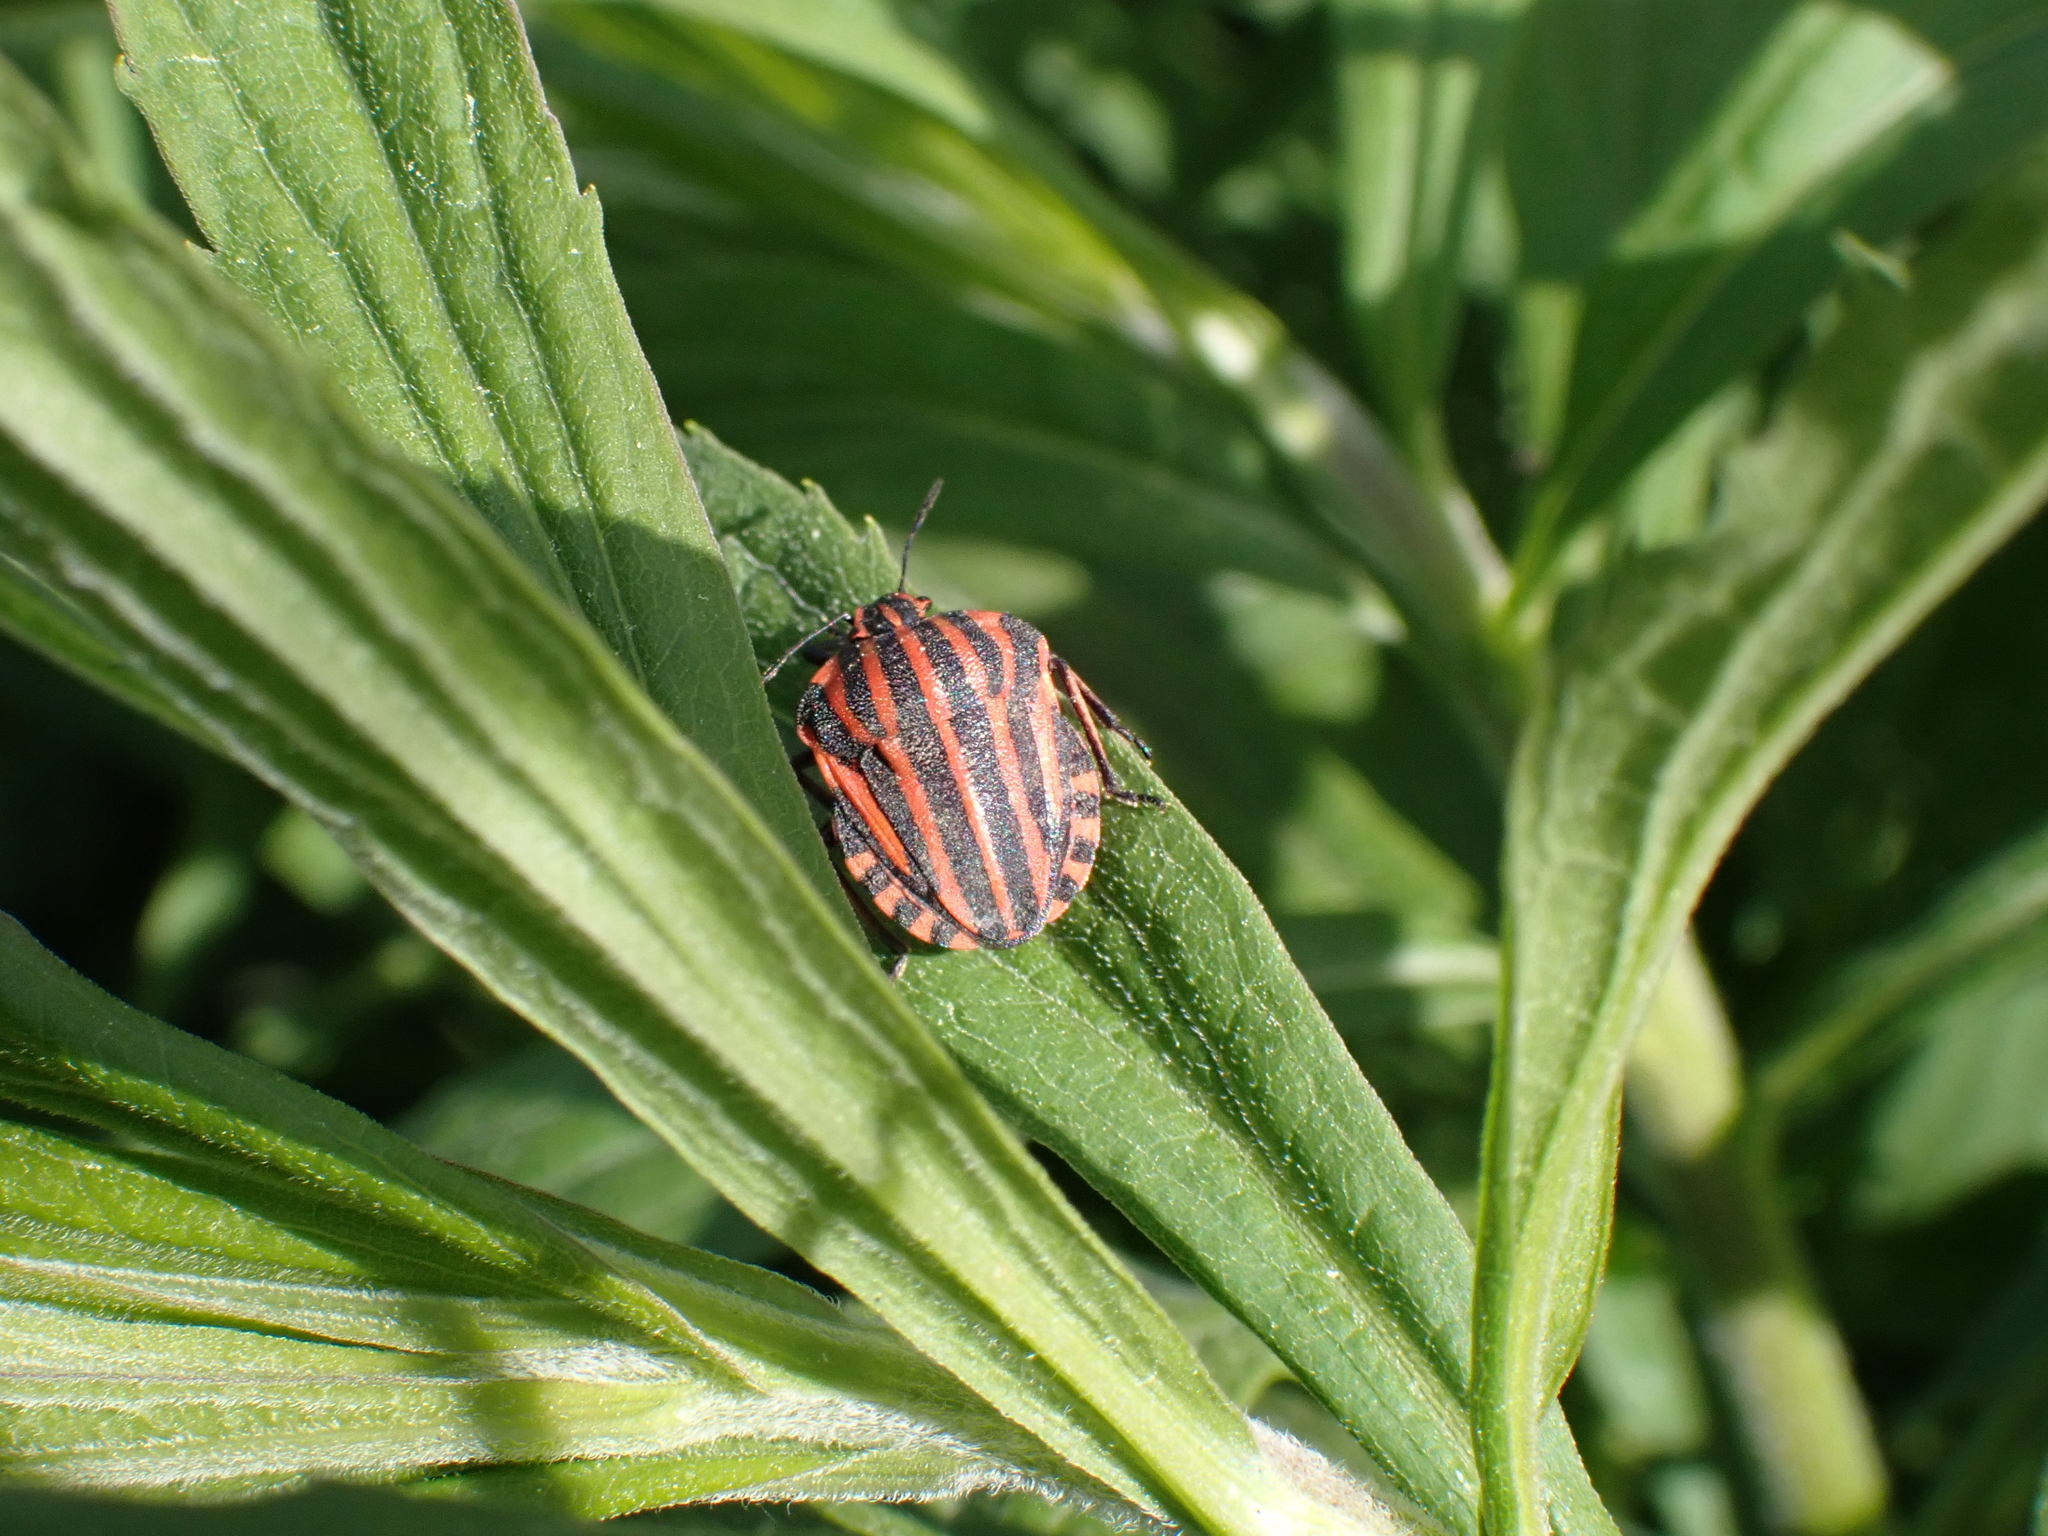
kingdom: Animalia
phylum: Arthropoda
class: Insecta
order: Hemiptera
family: Pentatomidae
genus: Graphosoma
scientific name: Graphosoma italicum
